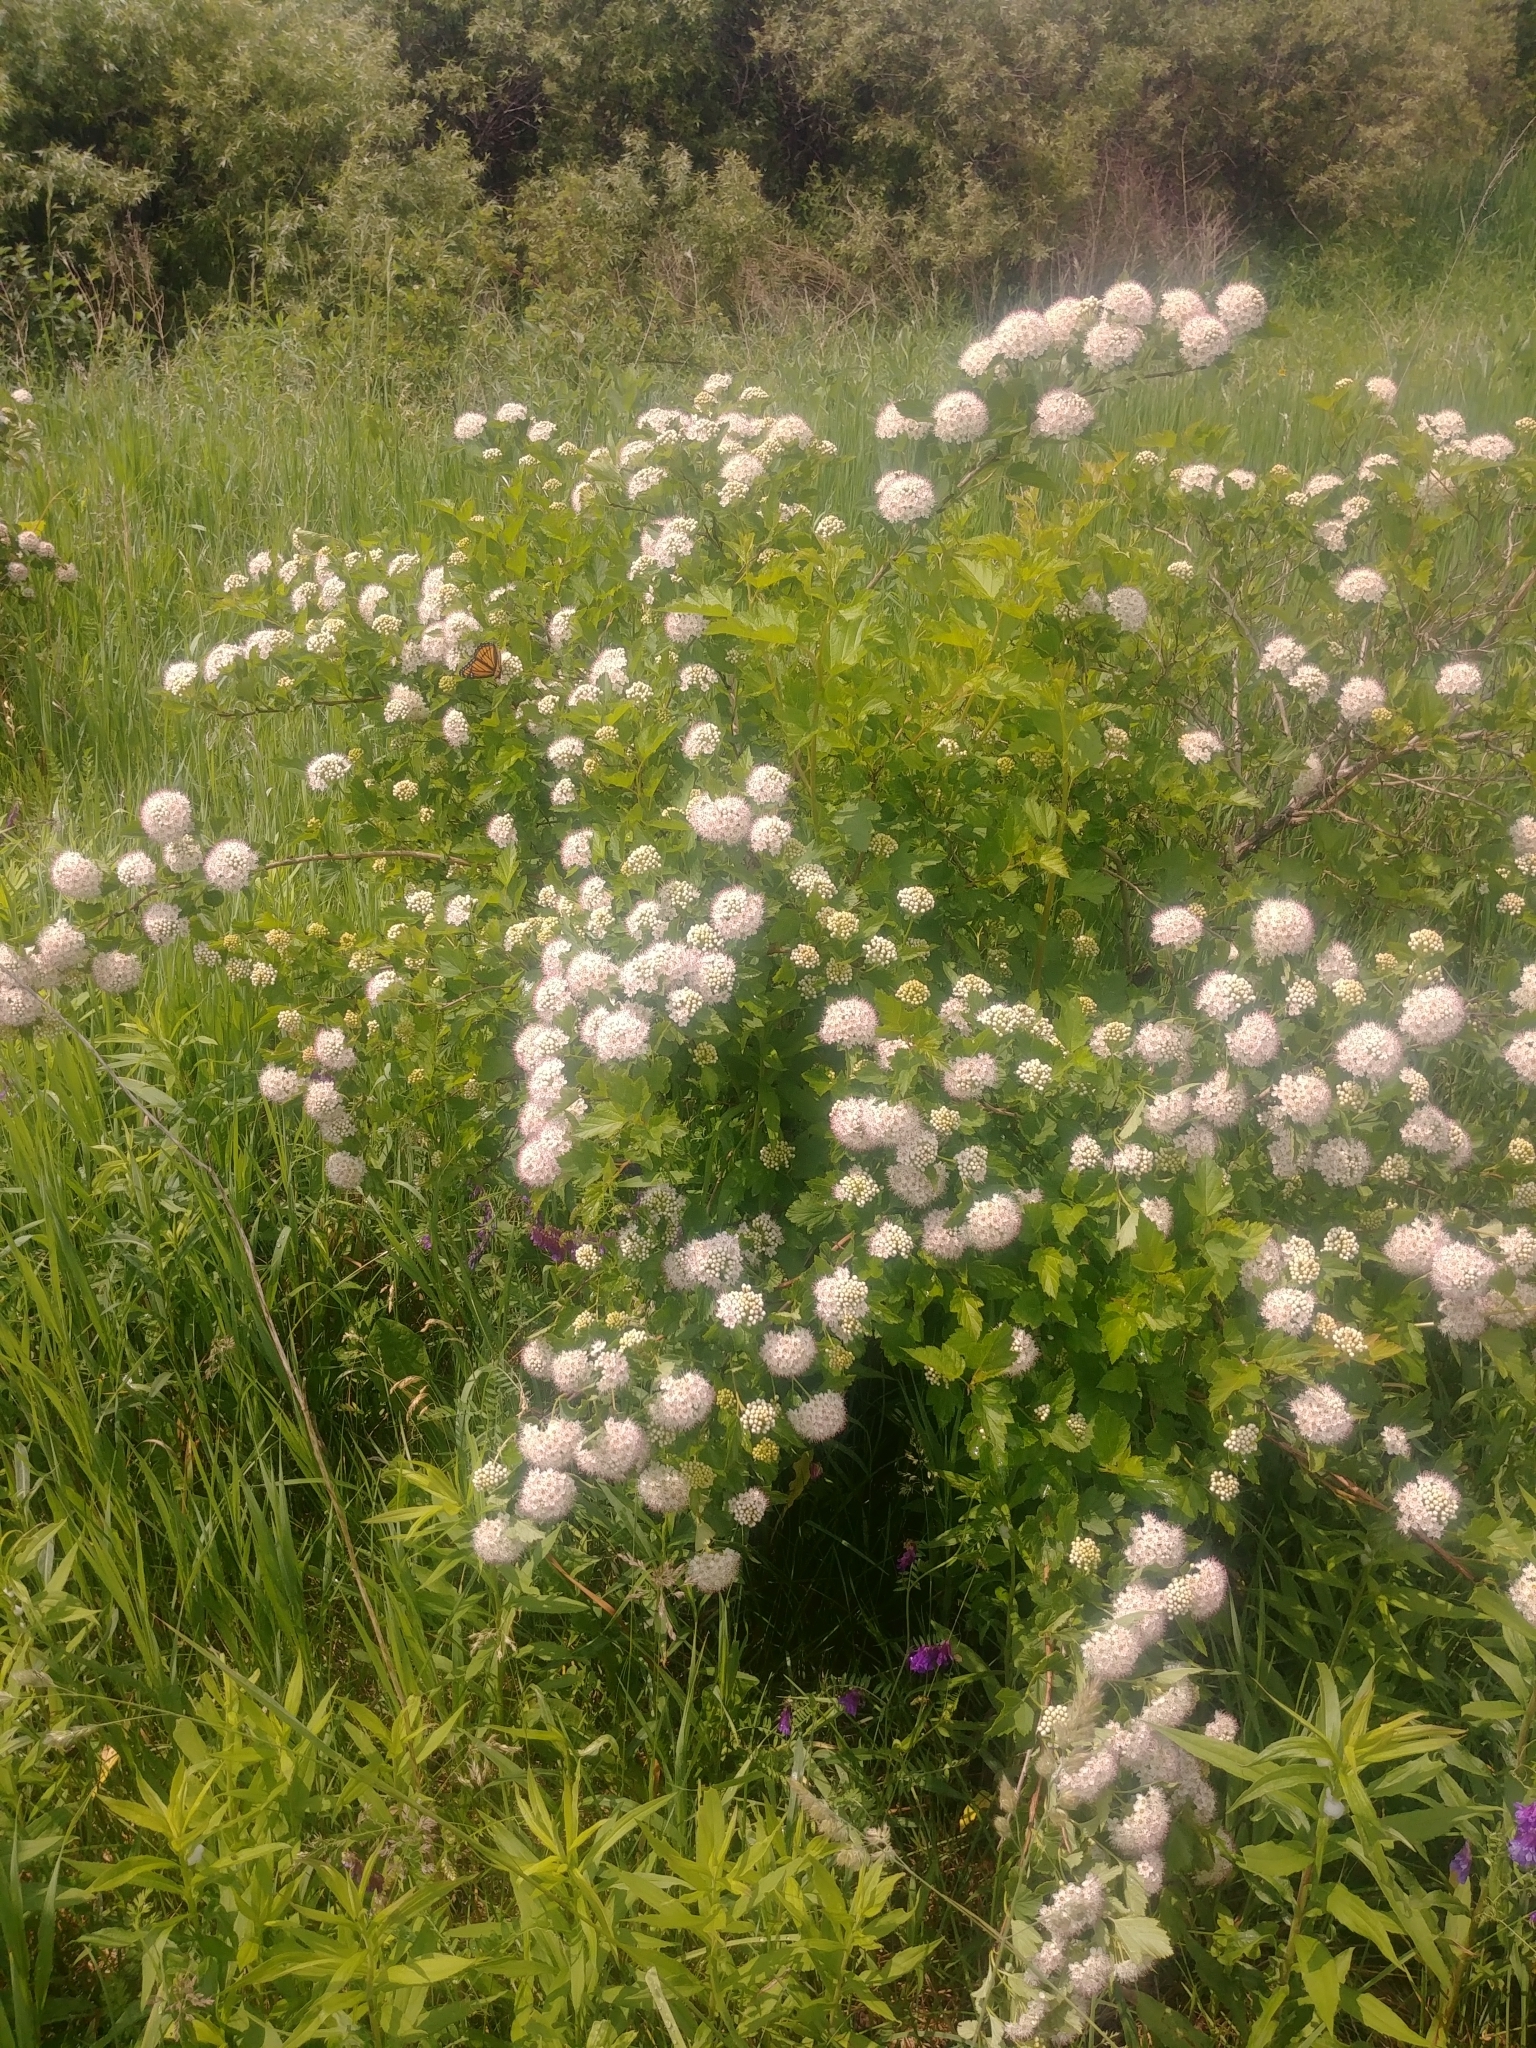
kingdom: Plantae
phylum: Tracheophyta
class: Magnoliopsida
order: Rosales
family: Rosaceae
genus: Physocarpus
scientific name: Physocarpus opulifolius
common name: Ninebark
